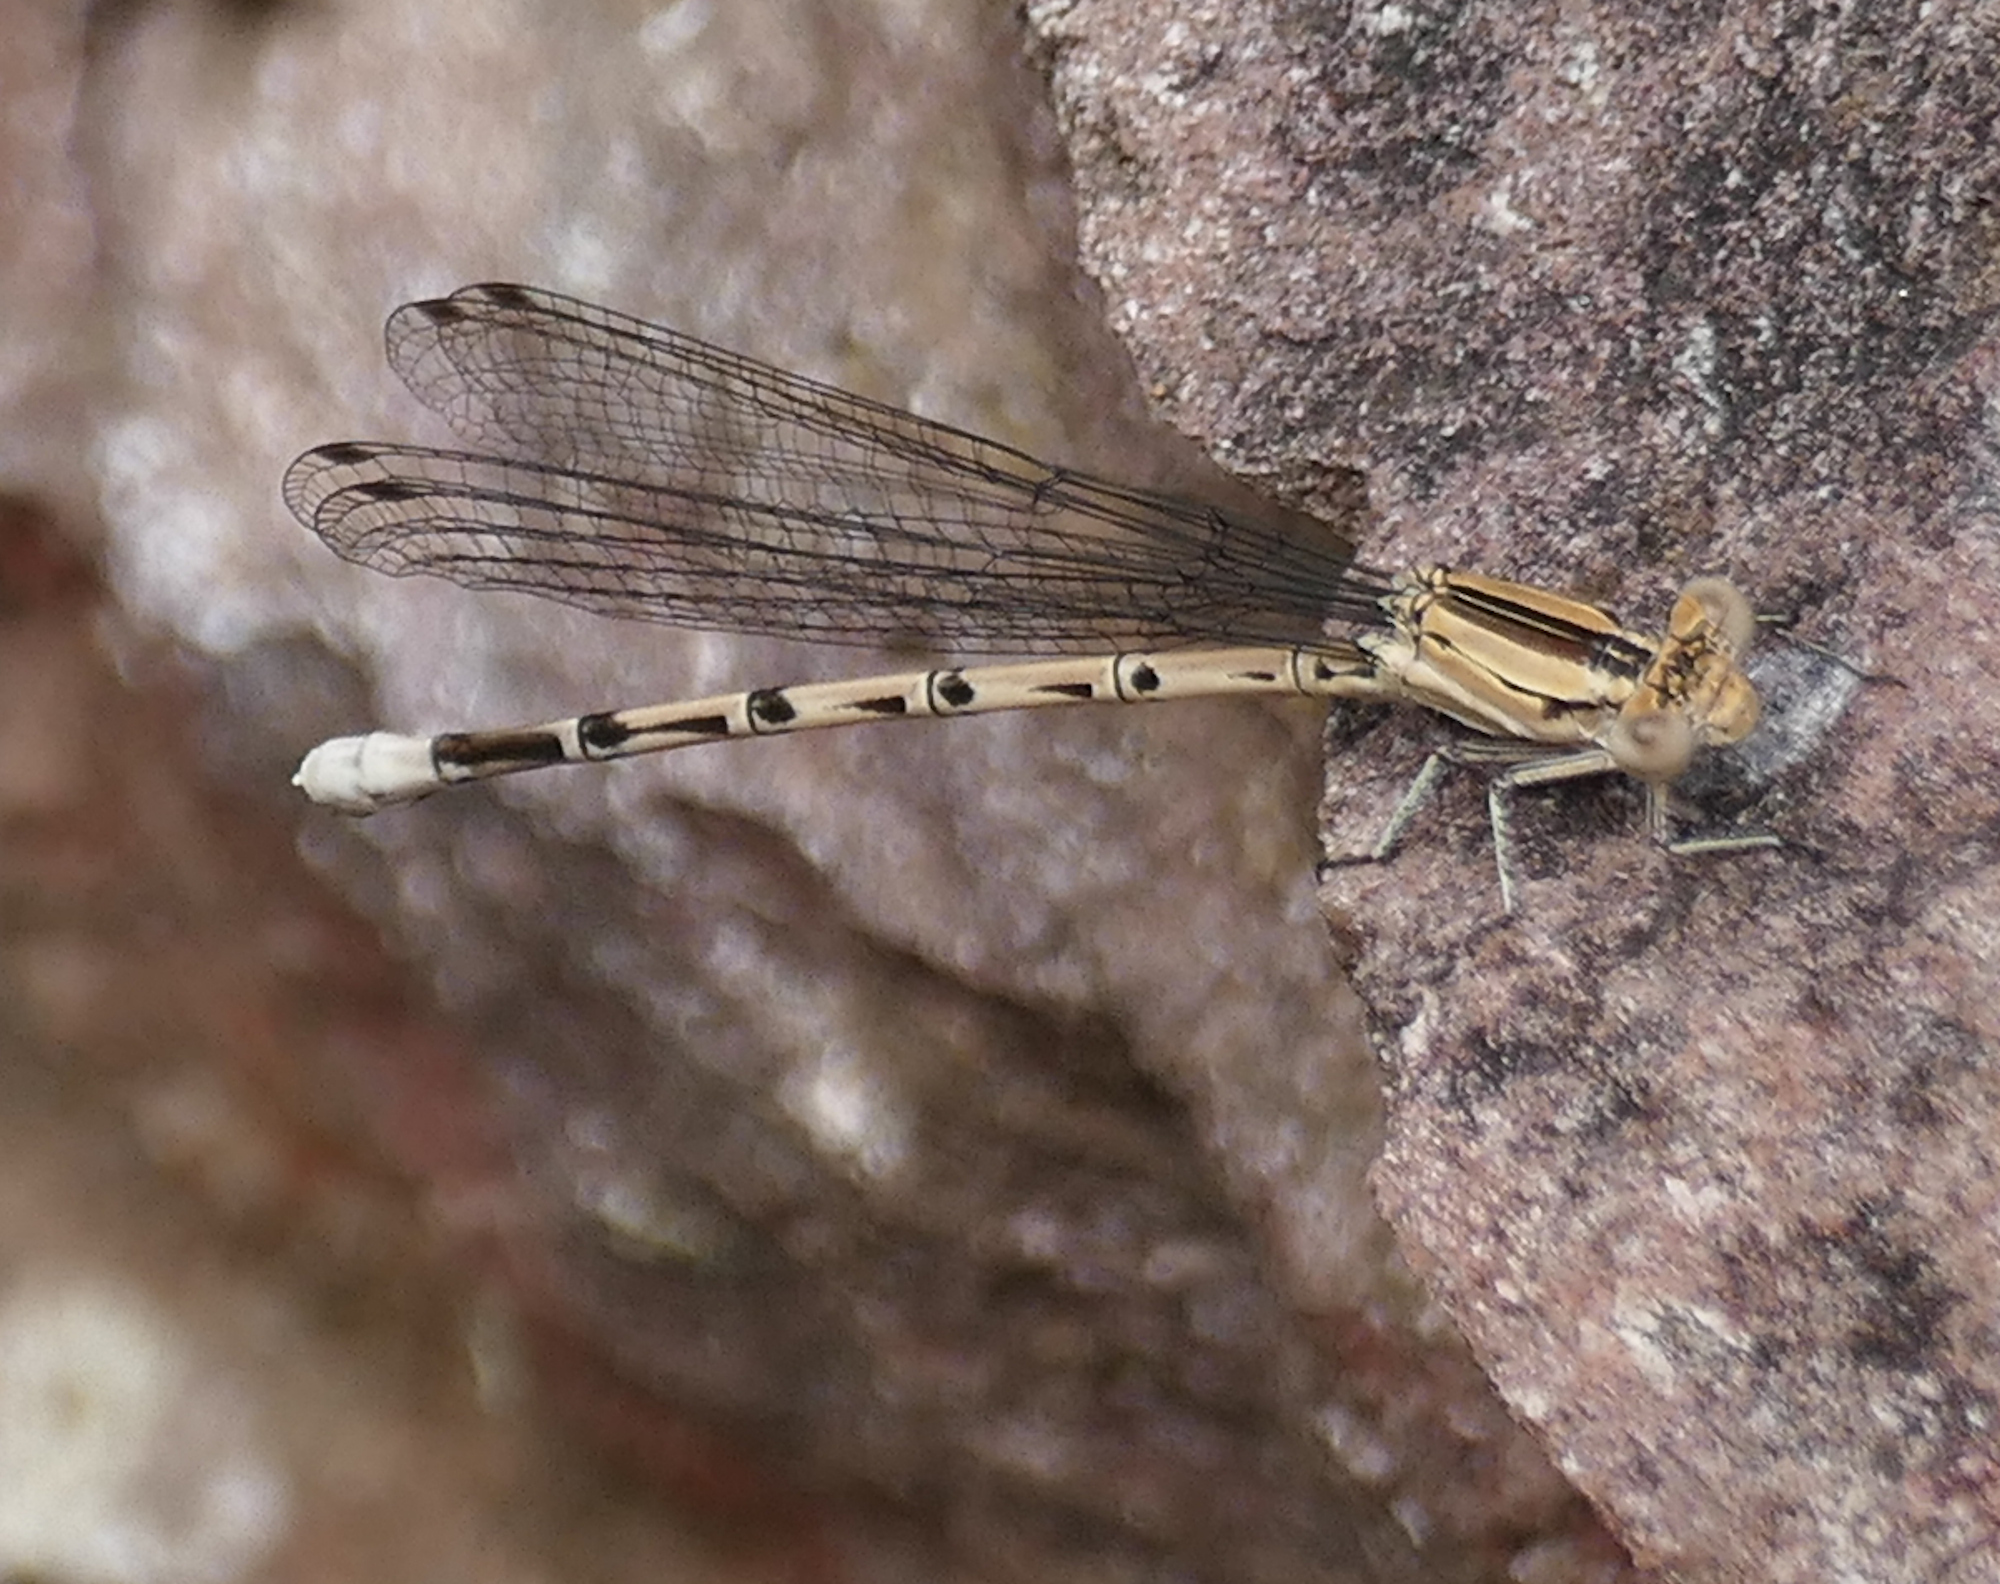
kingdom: Animalia
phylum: Arthropoda
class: Insecta
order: Odonata
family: Coenagrionidae
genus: Argia
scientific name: Argia funebris
